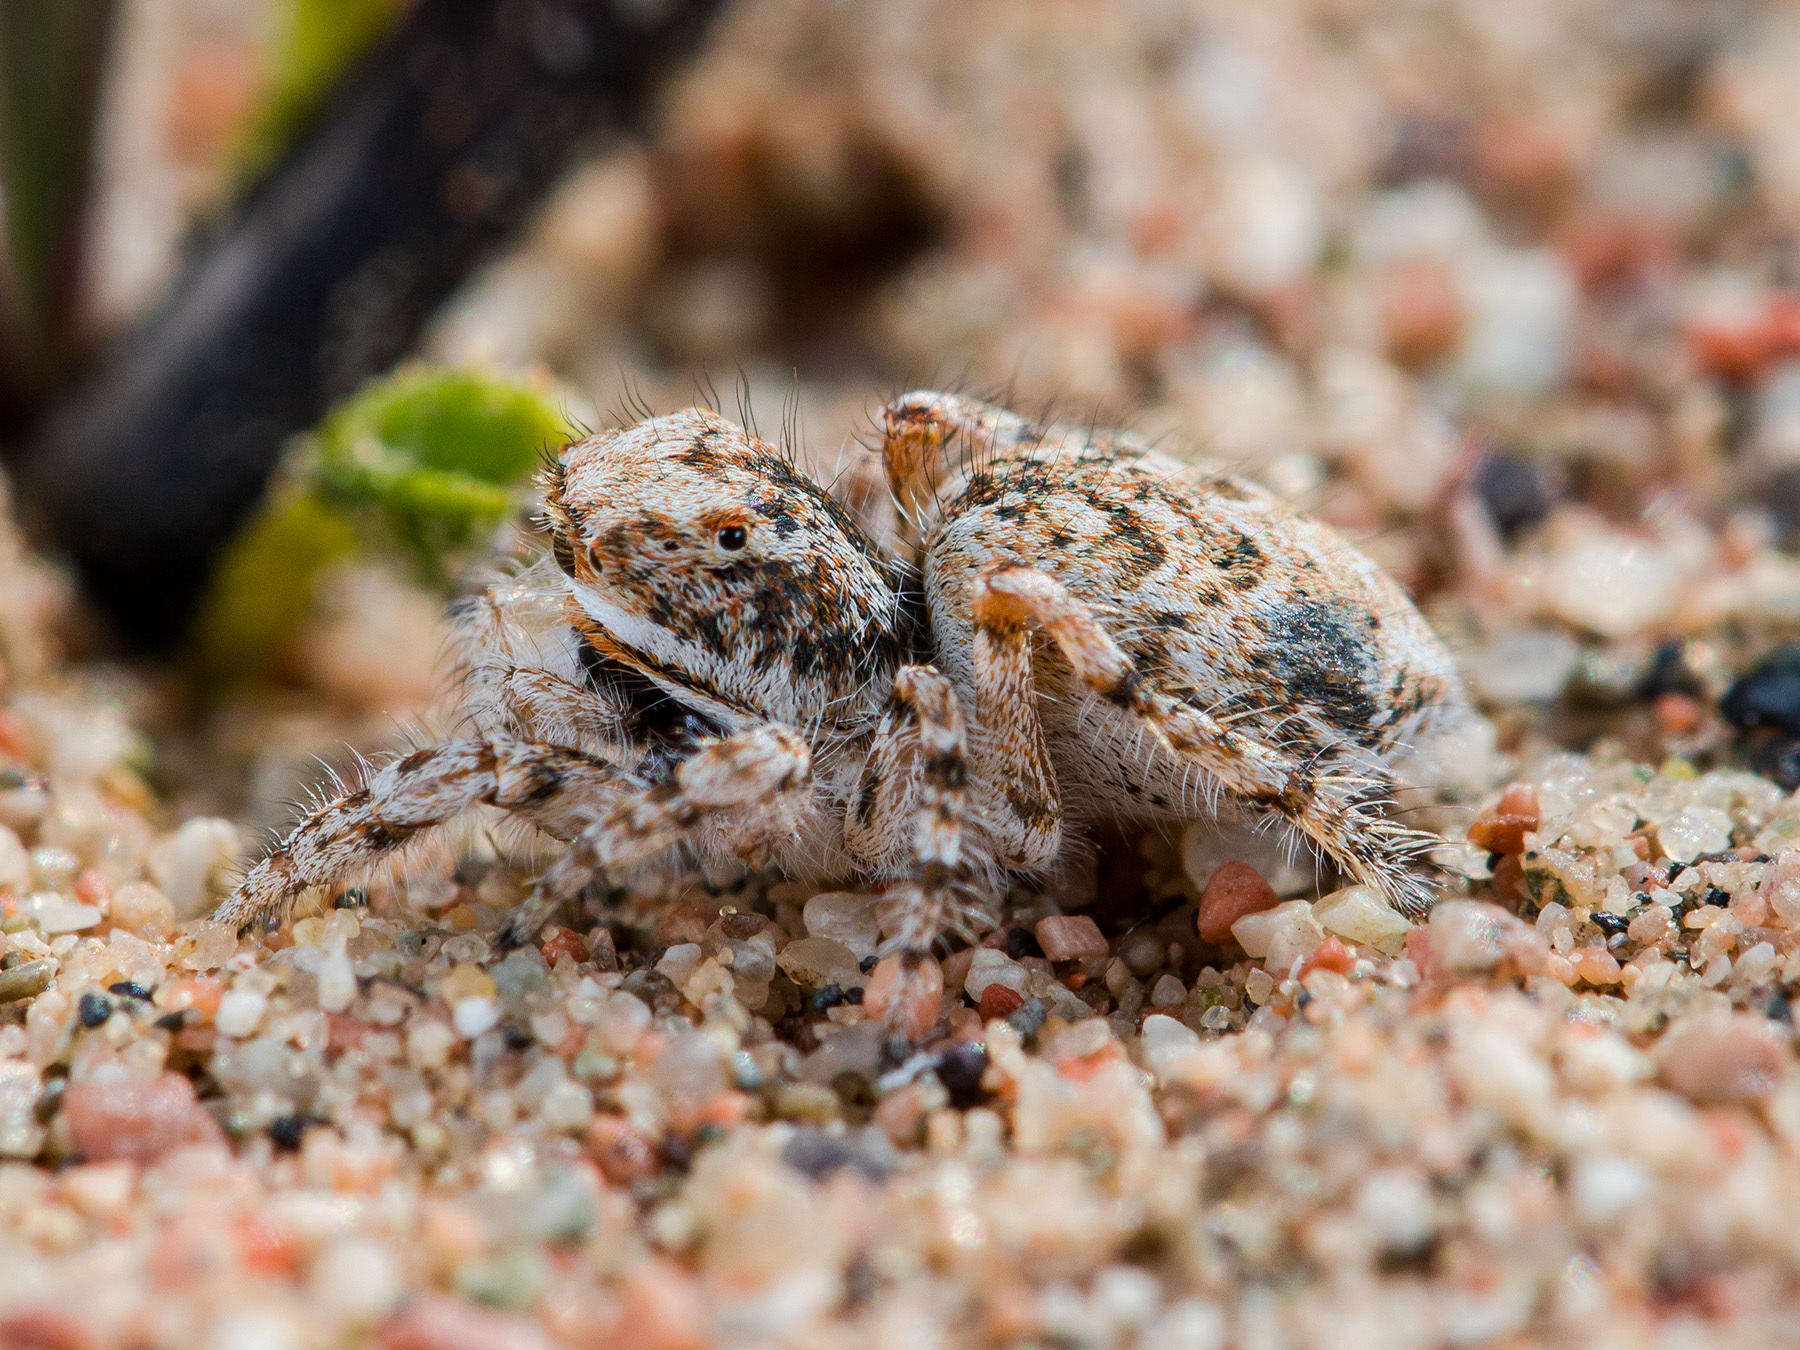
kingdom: Animalia
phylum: Arthropoda
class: Arachnida
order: Araneae
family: Salticidae
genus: Yllenus
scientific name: Yllenus uiguricus
